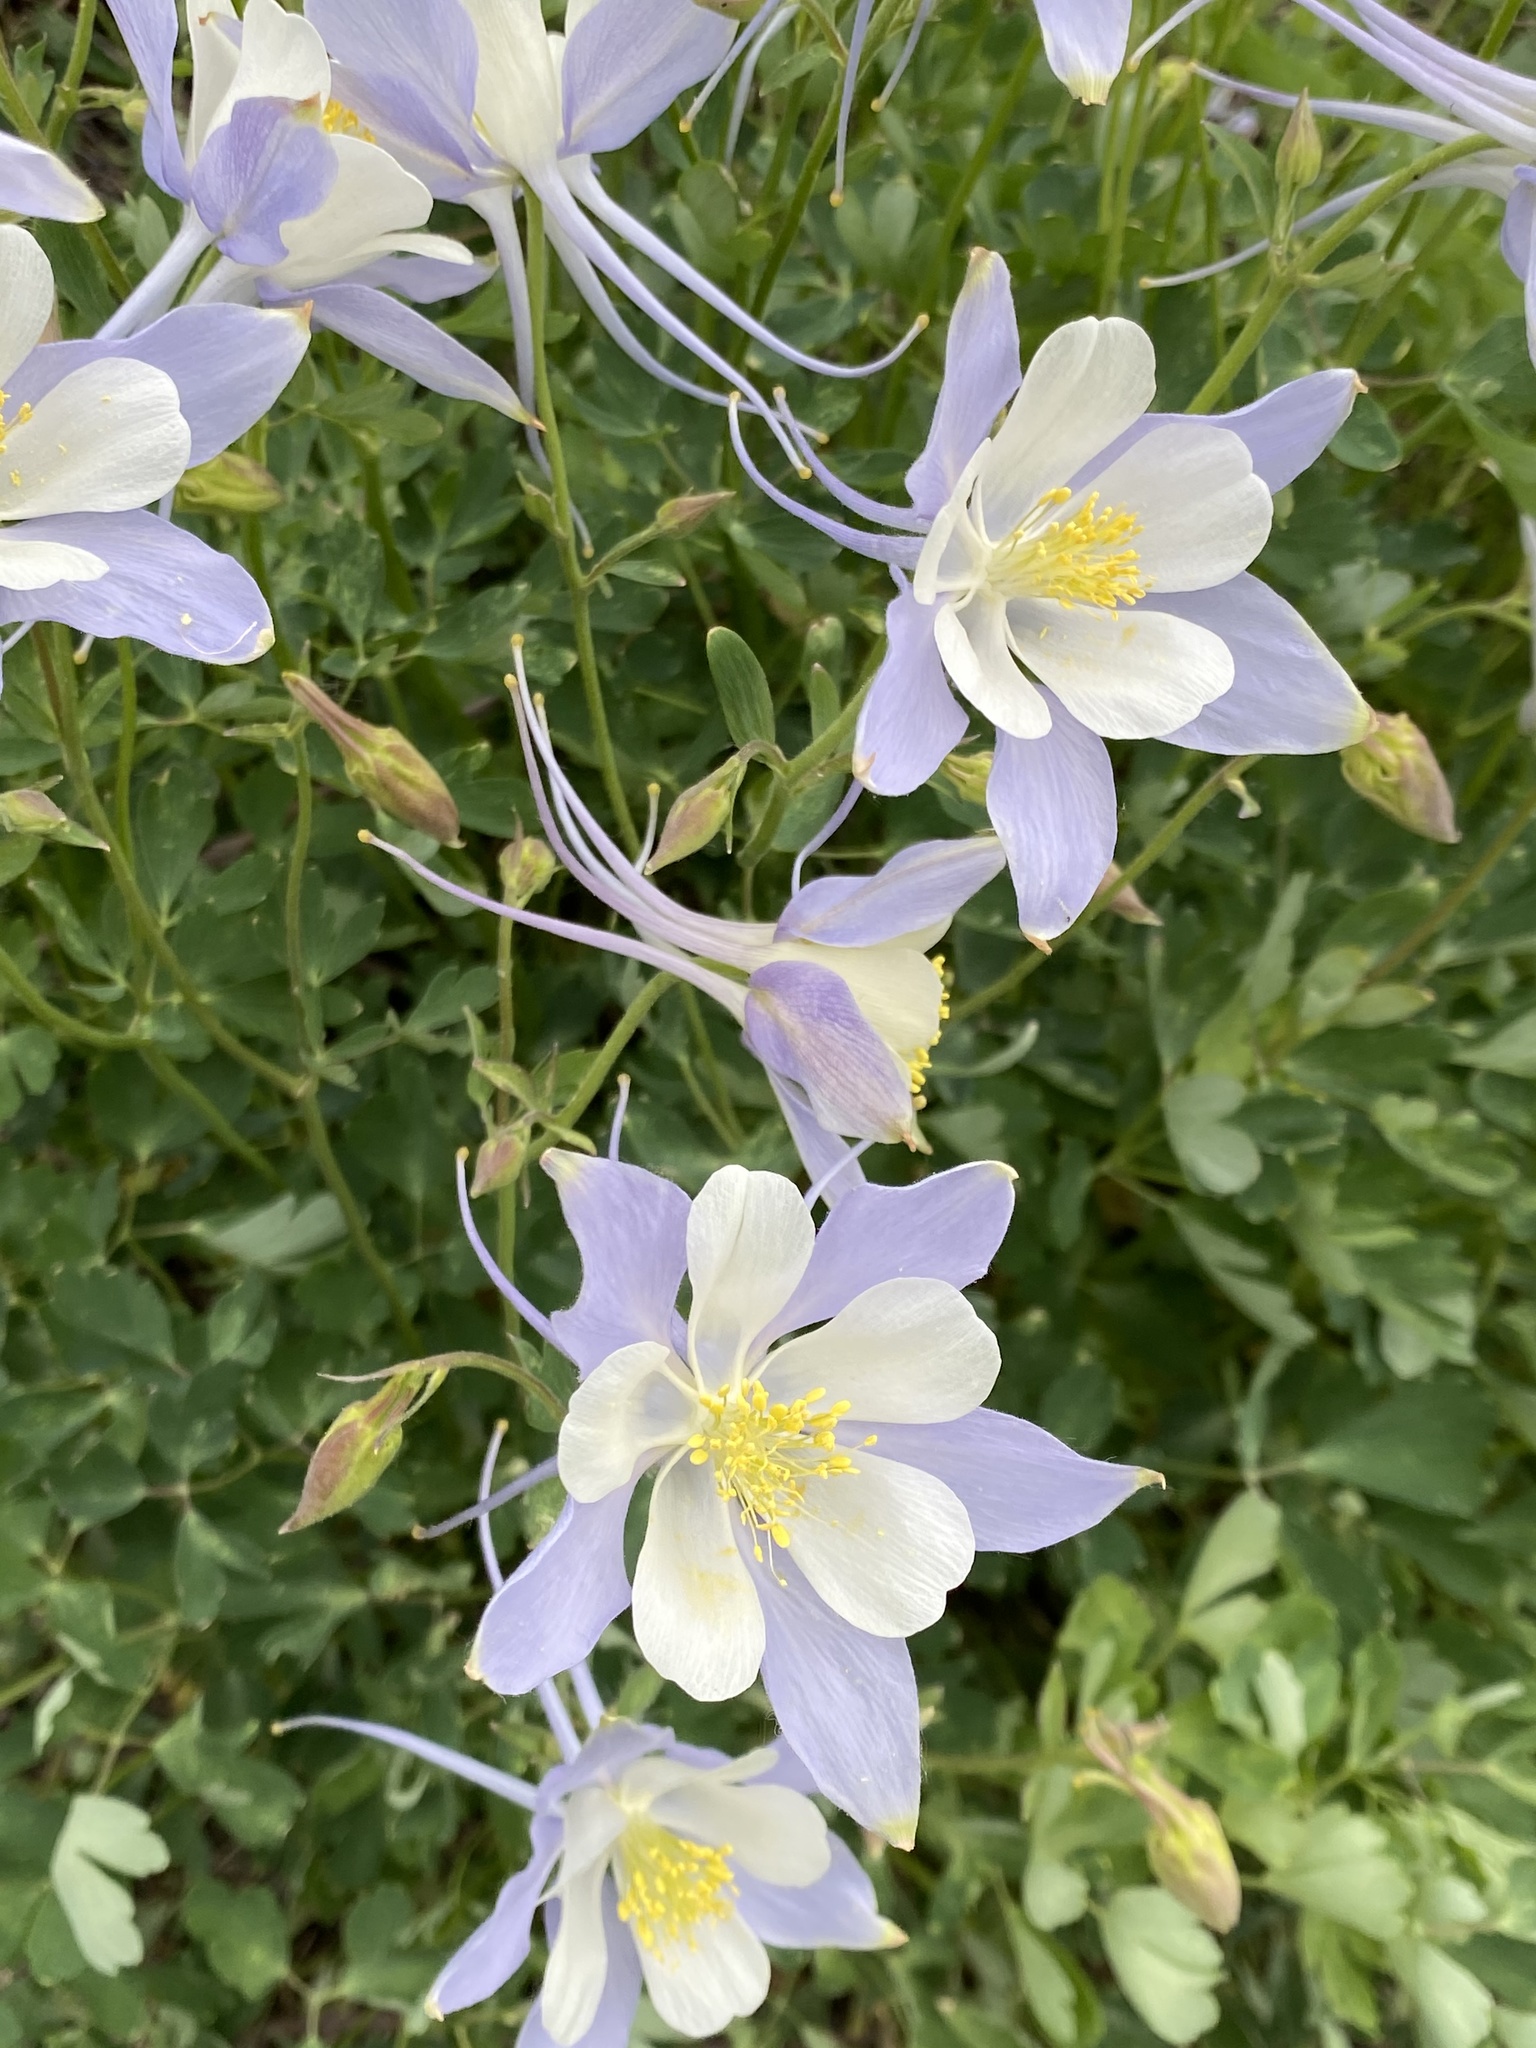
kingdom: Plantae
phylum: Tracheophyta
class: Magnoliopsida
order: Ranunculales
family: Ranunculaceae
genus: Aquilegia
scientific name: Aquilegia coerulea
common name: Rocky mountain columbine
